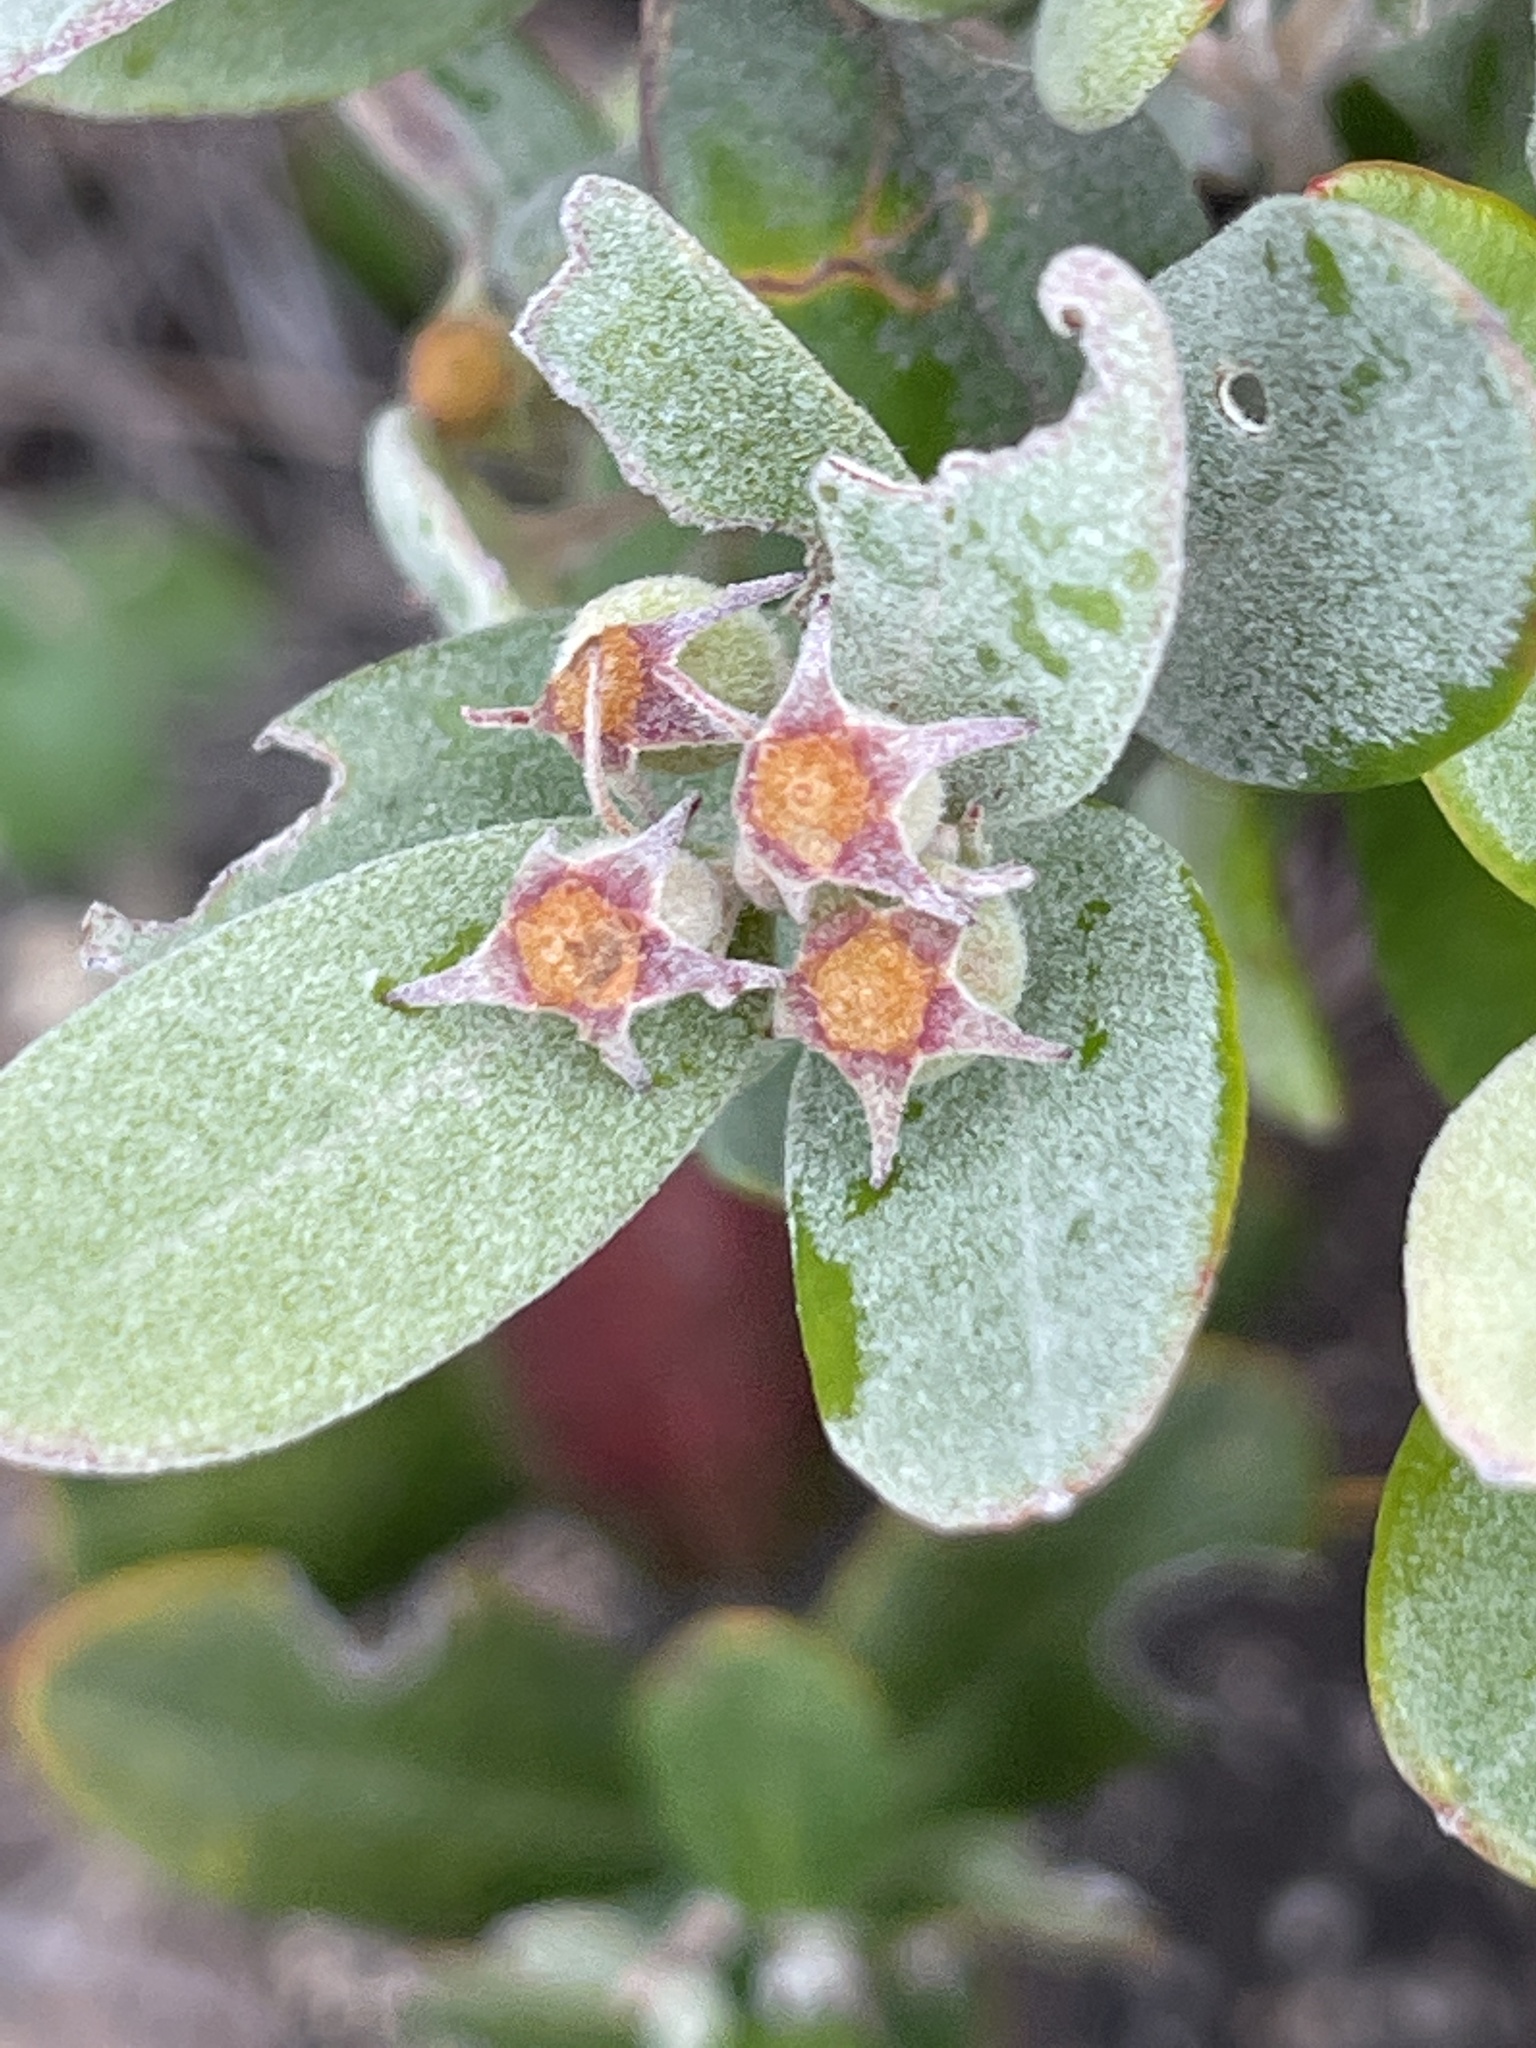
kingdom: Plantae
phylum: Tracheophyta
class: Magnoliopsida
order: Myrtales
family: Myrtaceae
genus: Lithomyrtus
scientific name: Lithomyrtus obtusa
